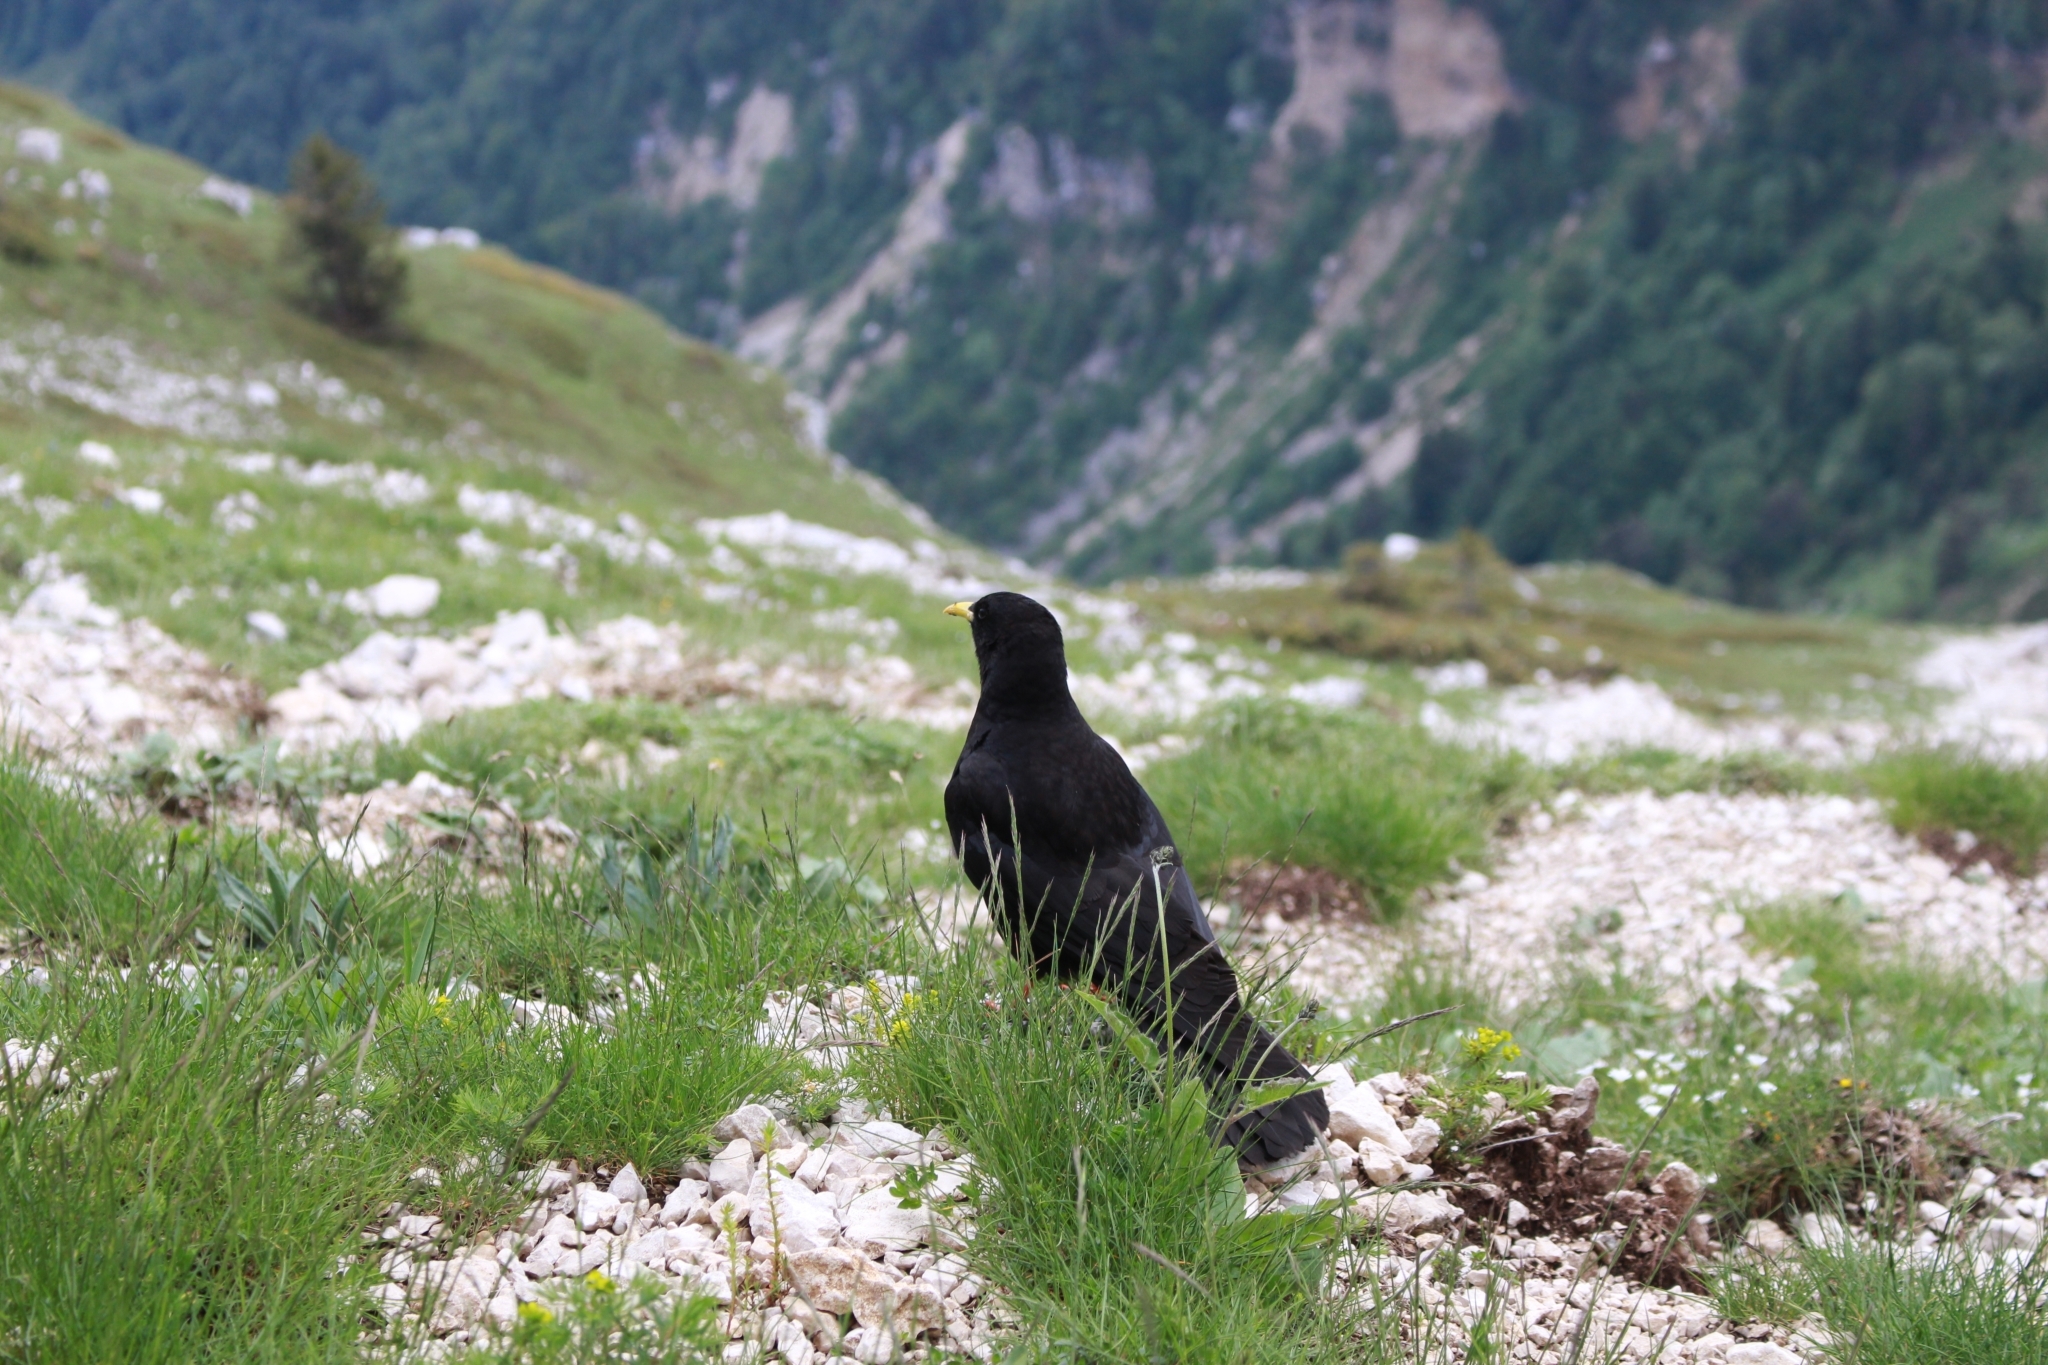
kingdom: Animalia
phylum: Chordata
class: Aves
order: Passeriformes
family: Corvidae
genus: Pyrrhocorax
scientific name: Pyrrhocorax graculus
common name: Alpine chough
